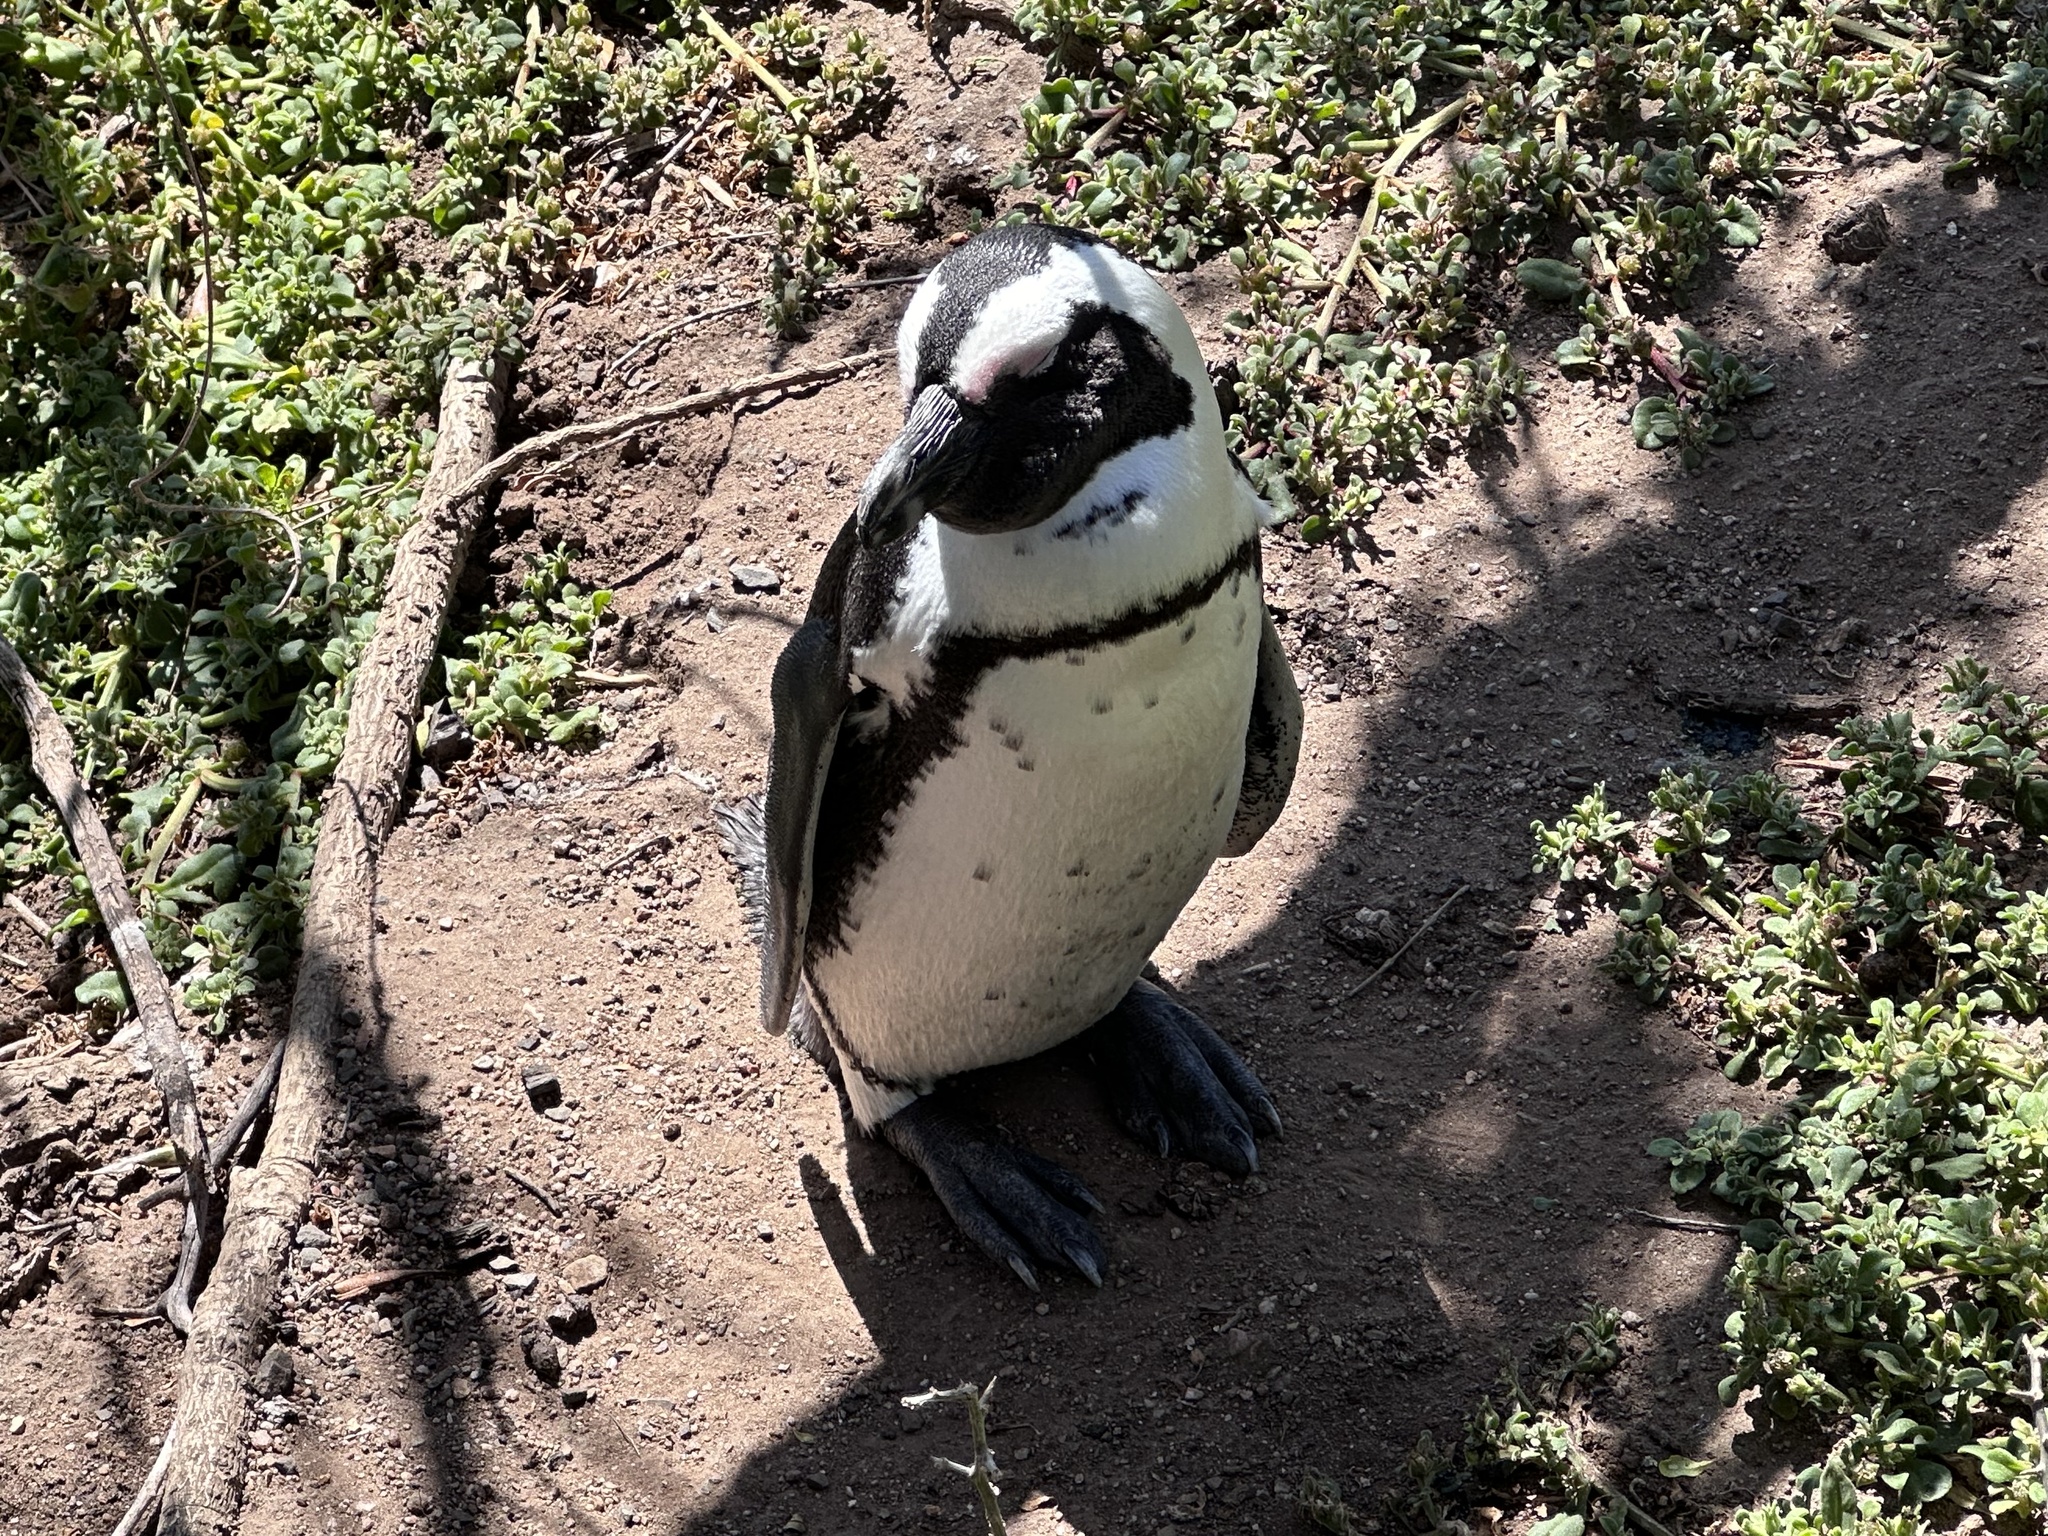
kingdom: Animalia
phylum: Chordata
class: Aves
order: Sphenisciformes
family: Spheniscidae
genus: Spheniscus
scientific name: Spheniscus demersus
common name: African penguin
